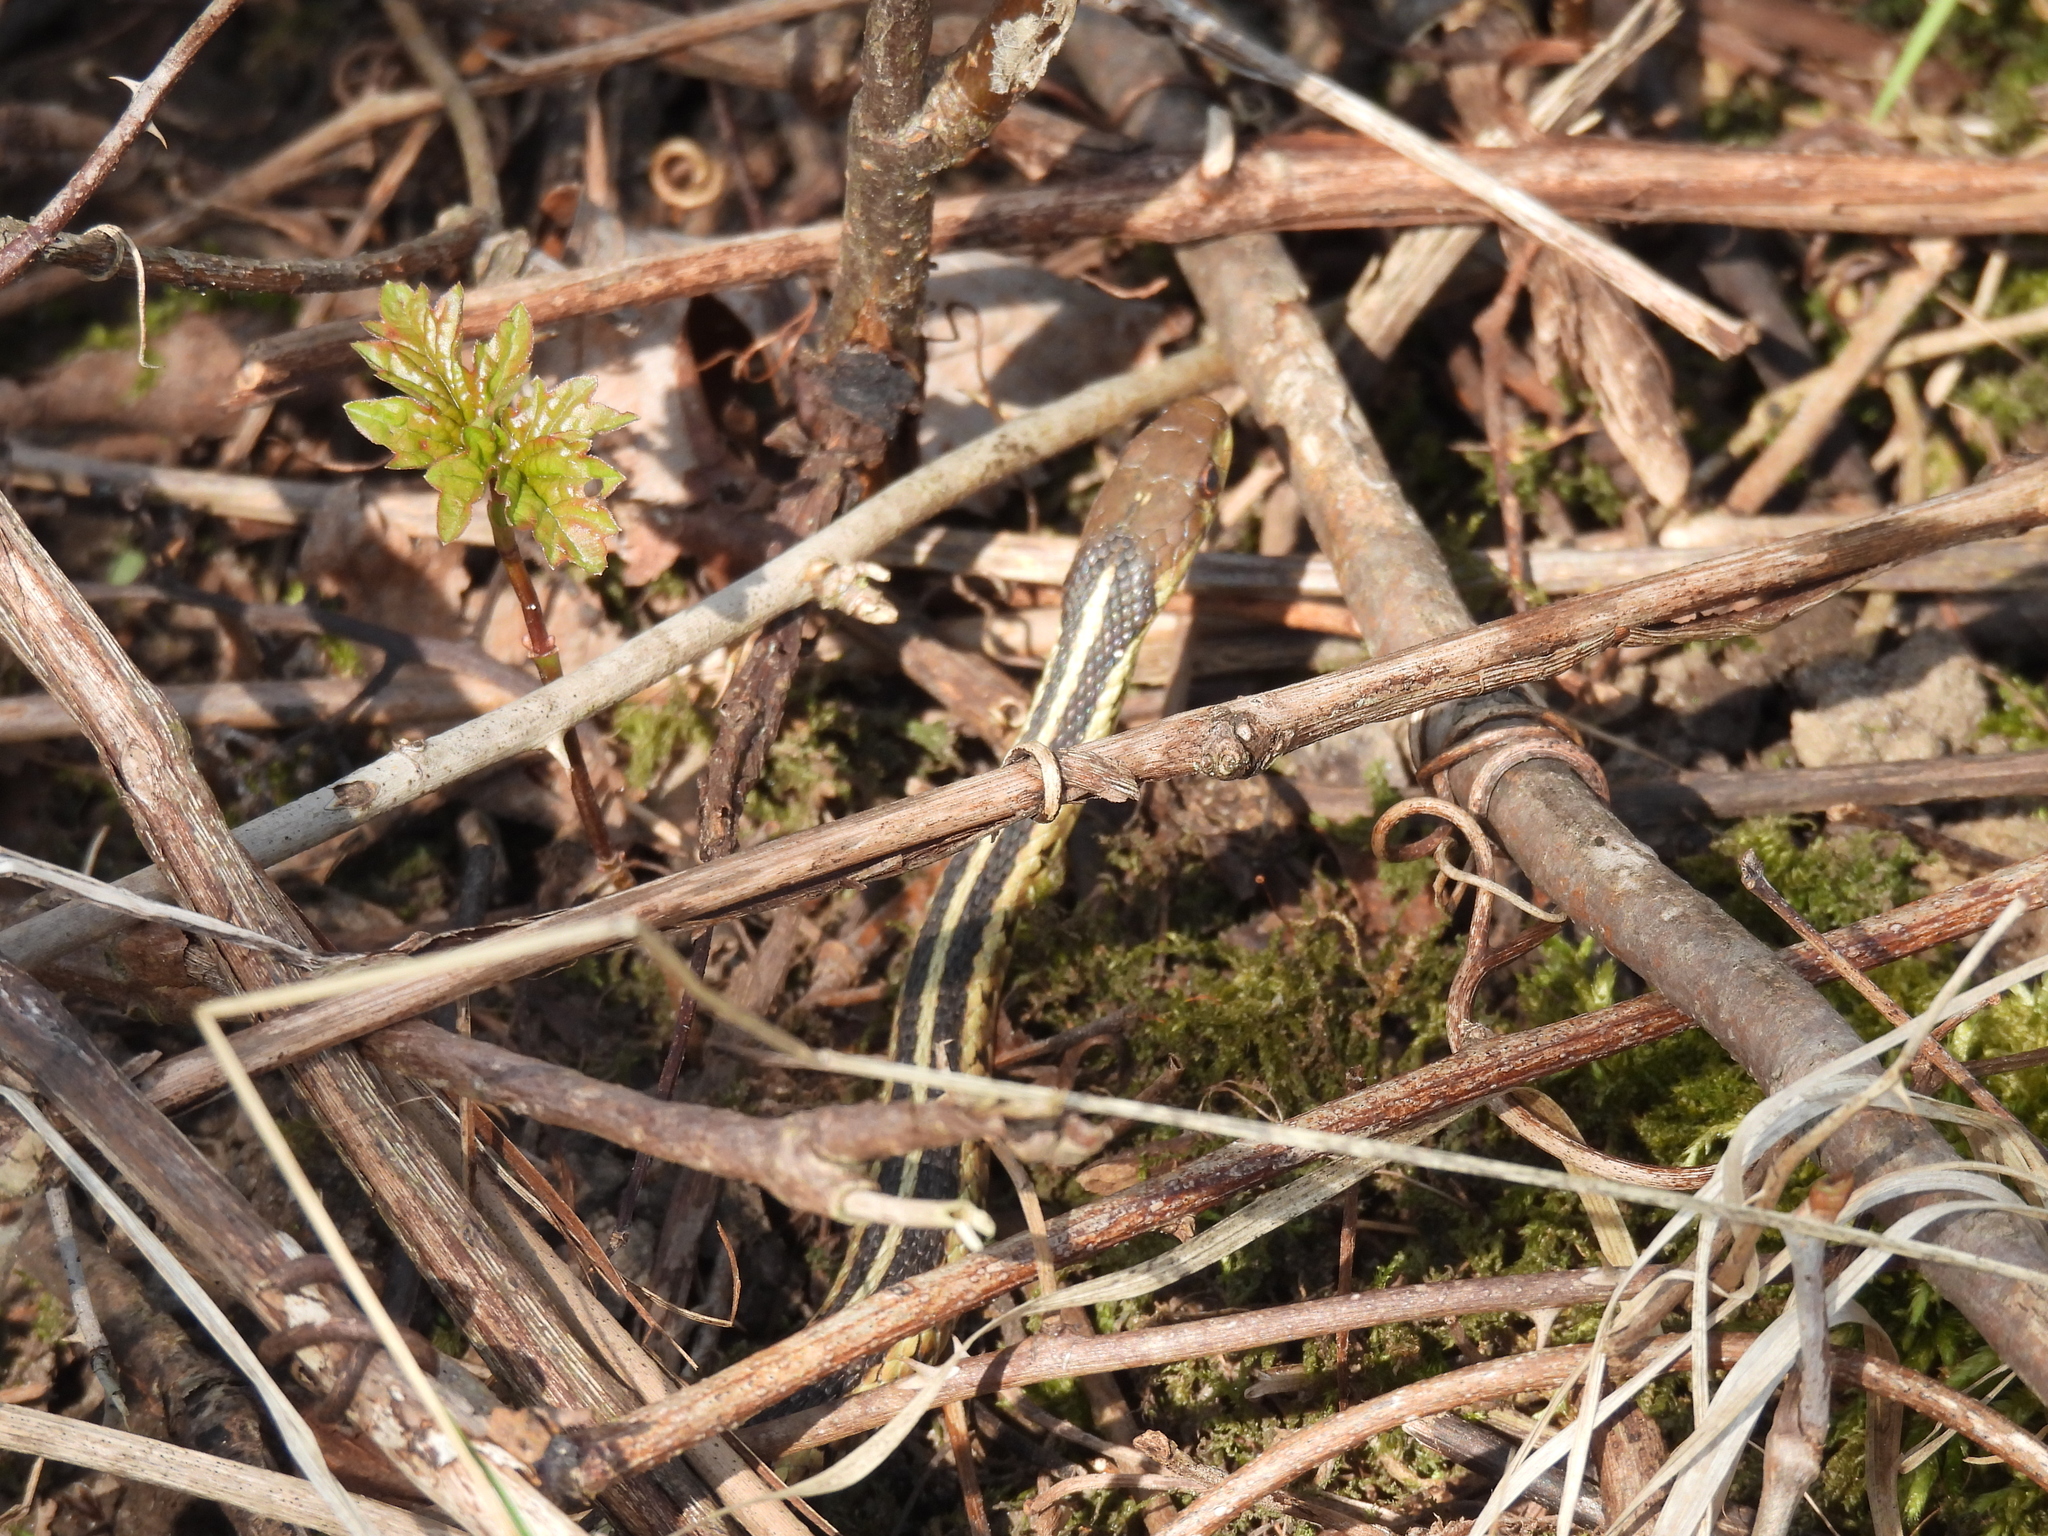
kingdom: Animalia
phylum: Chordata
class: Squamata
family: Colubridae
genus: Thamnophis
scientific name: Thamnophis sirtalis
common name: Common garter snake
